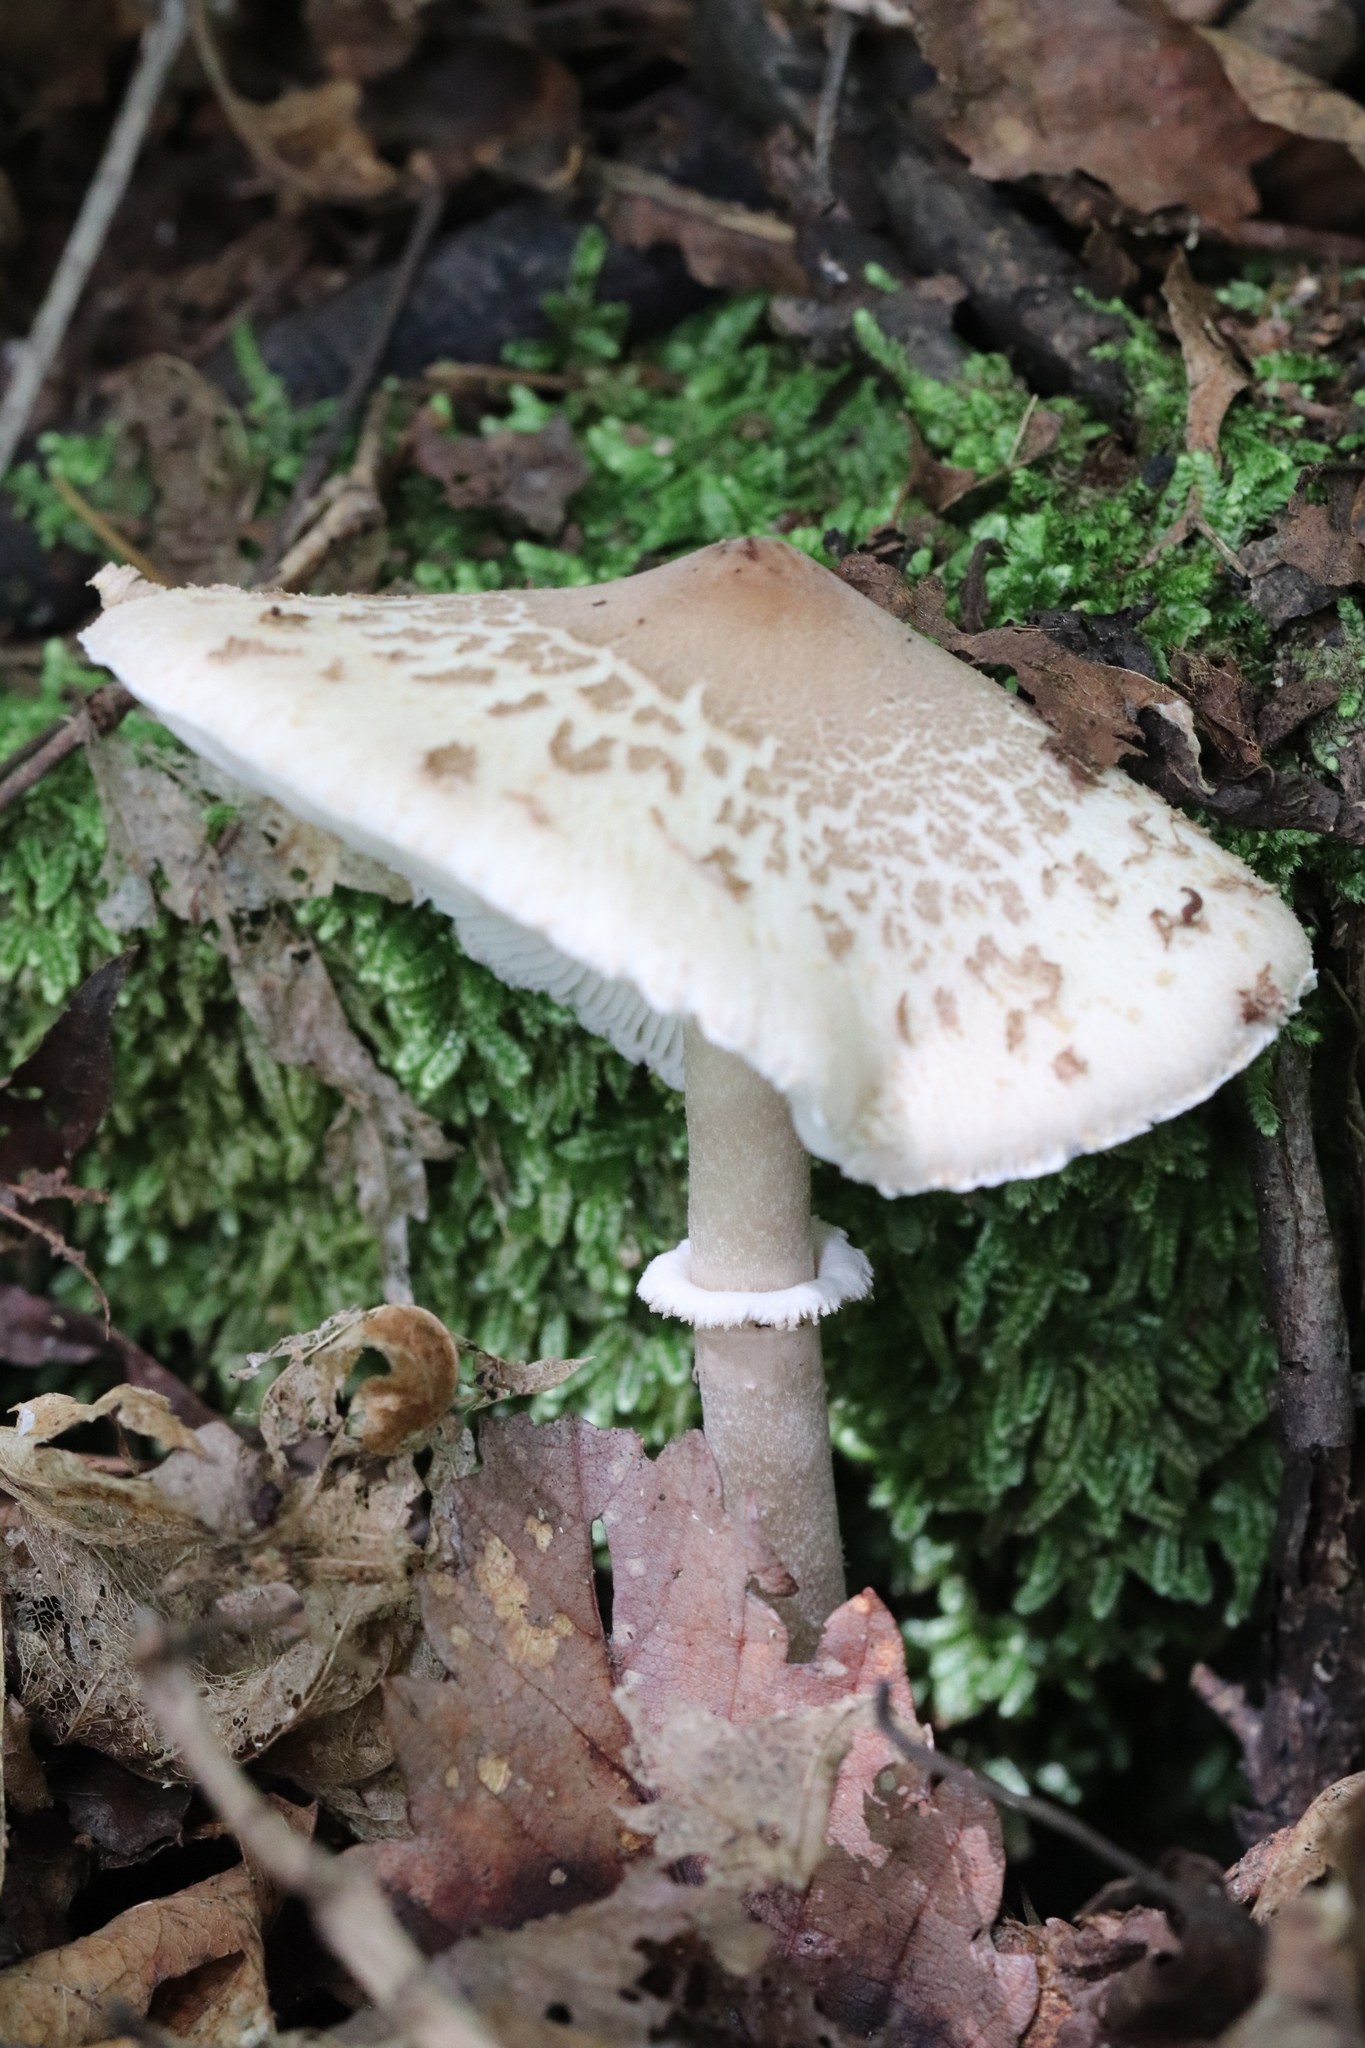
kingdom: Fungi
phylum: Basidiomycota
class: Agaricomycetes
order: Agaricales
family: Agaricaceae
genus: Macrolepiota
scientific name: Macrolepiota mastoidea
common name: Slender parasol
